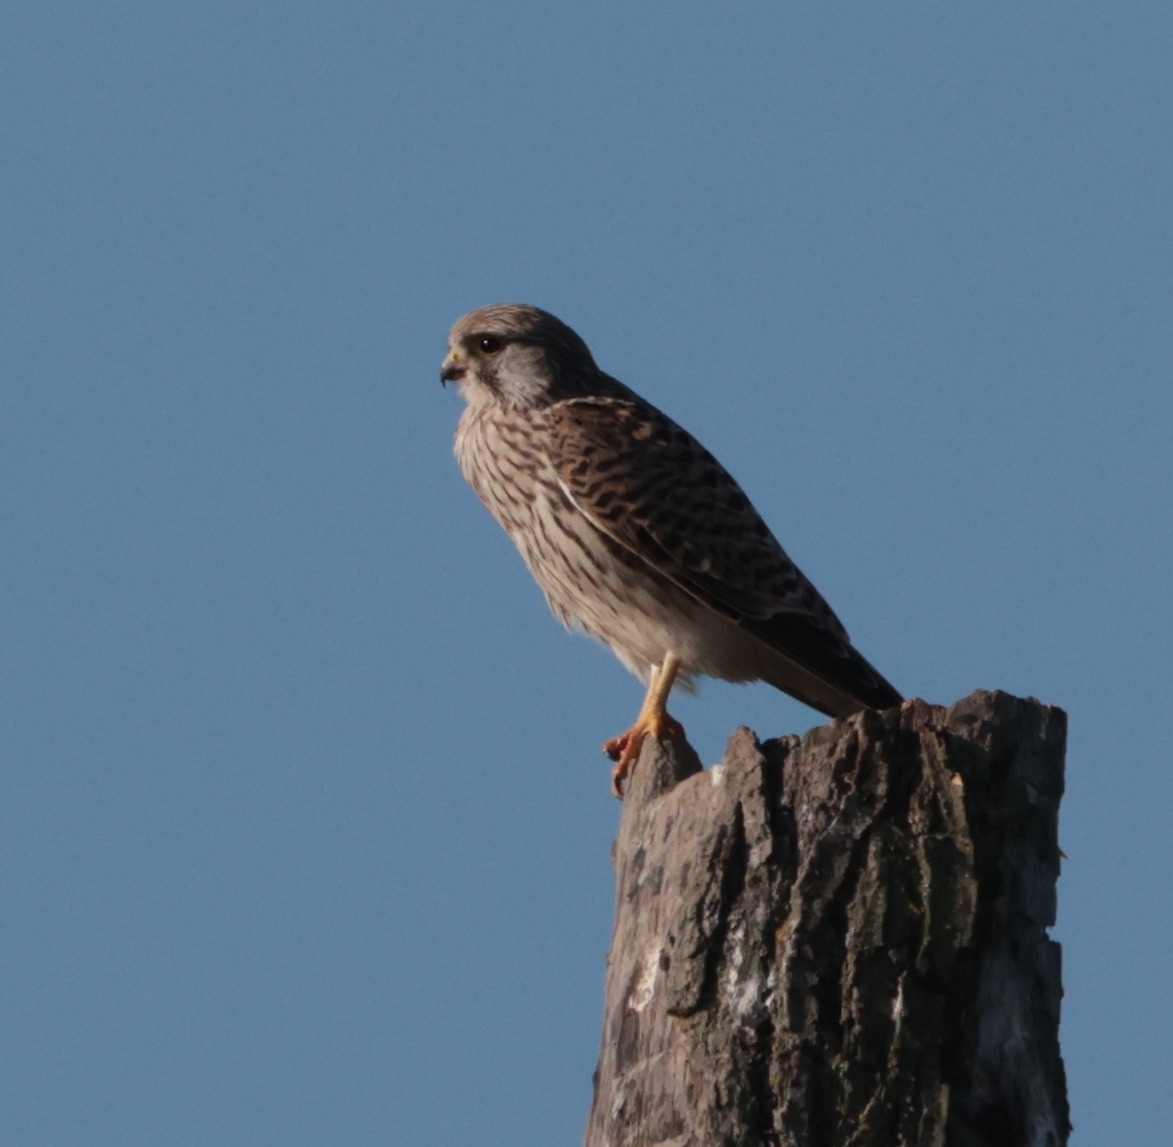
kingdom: Animalia
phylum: Chordata
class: Aves
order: Falconiformes
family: Falconidae
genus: Falco
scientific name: Falco tinnunculus
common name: Common kestrel
